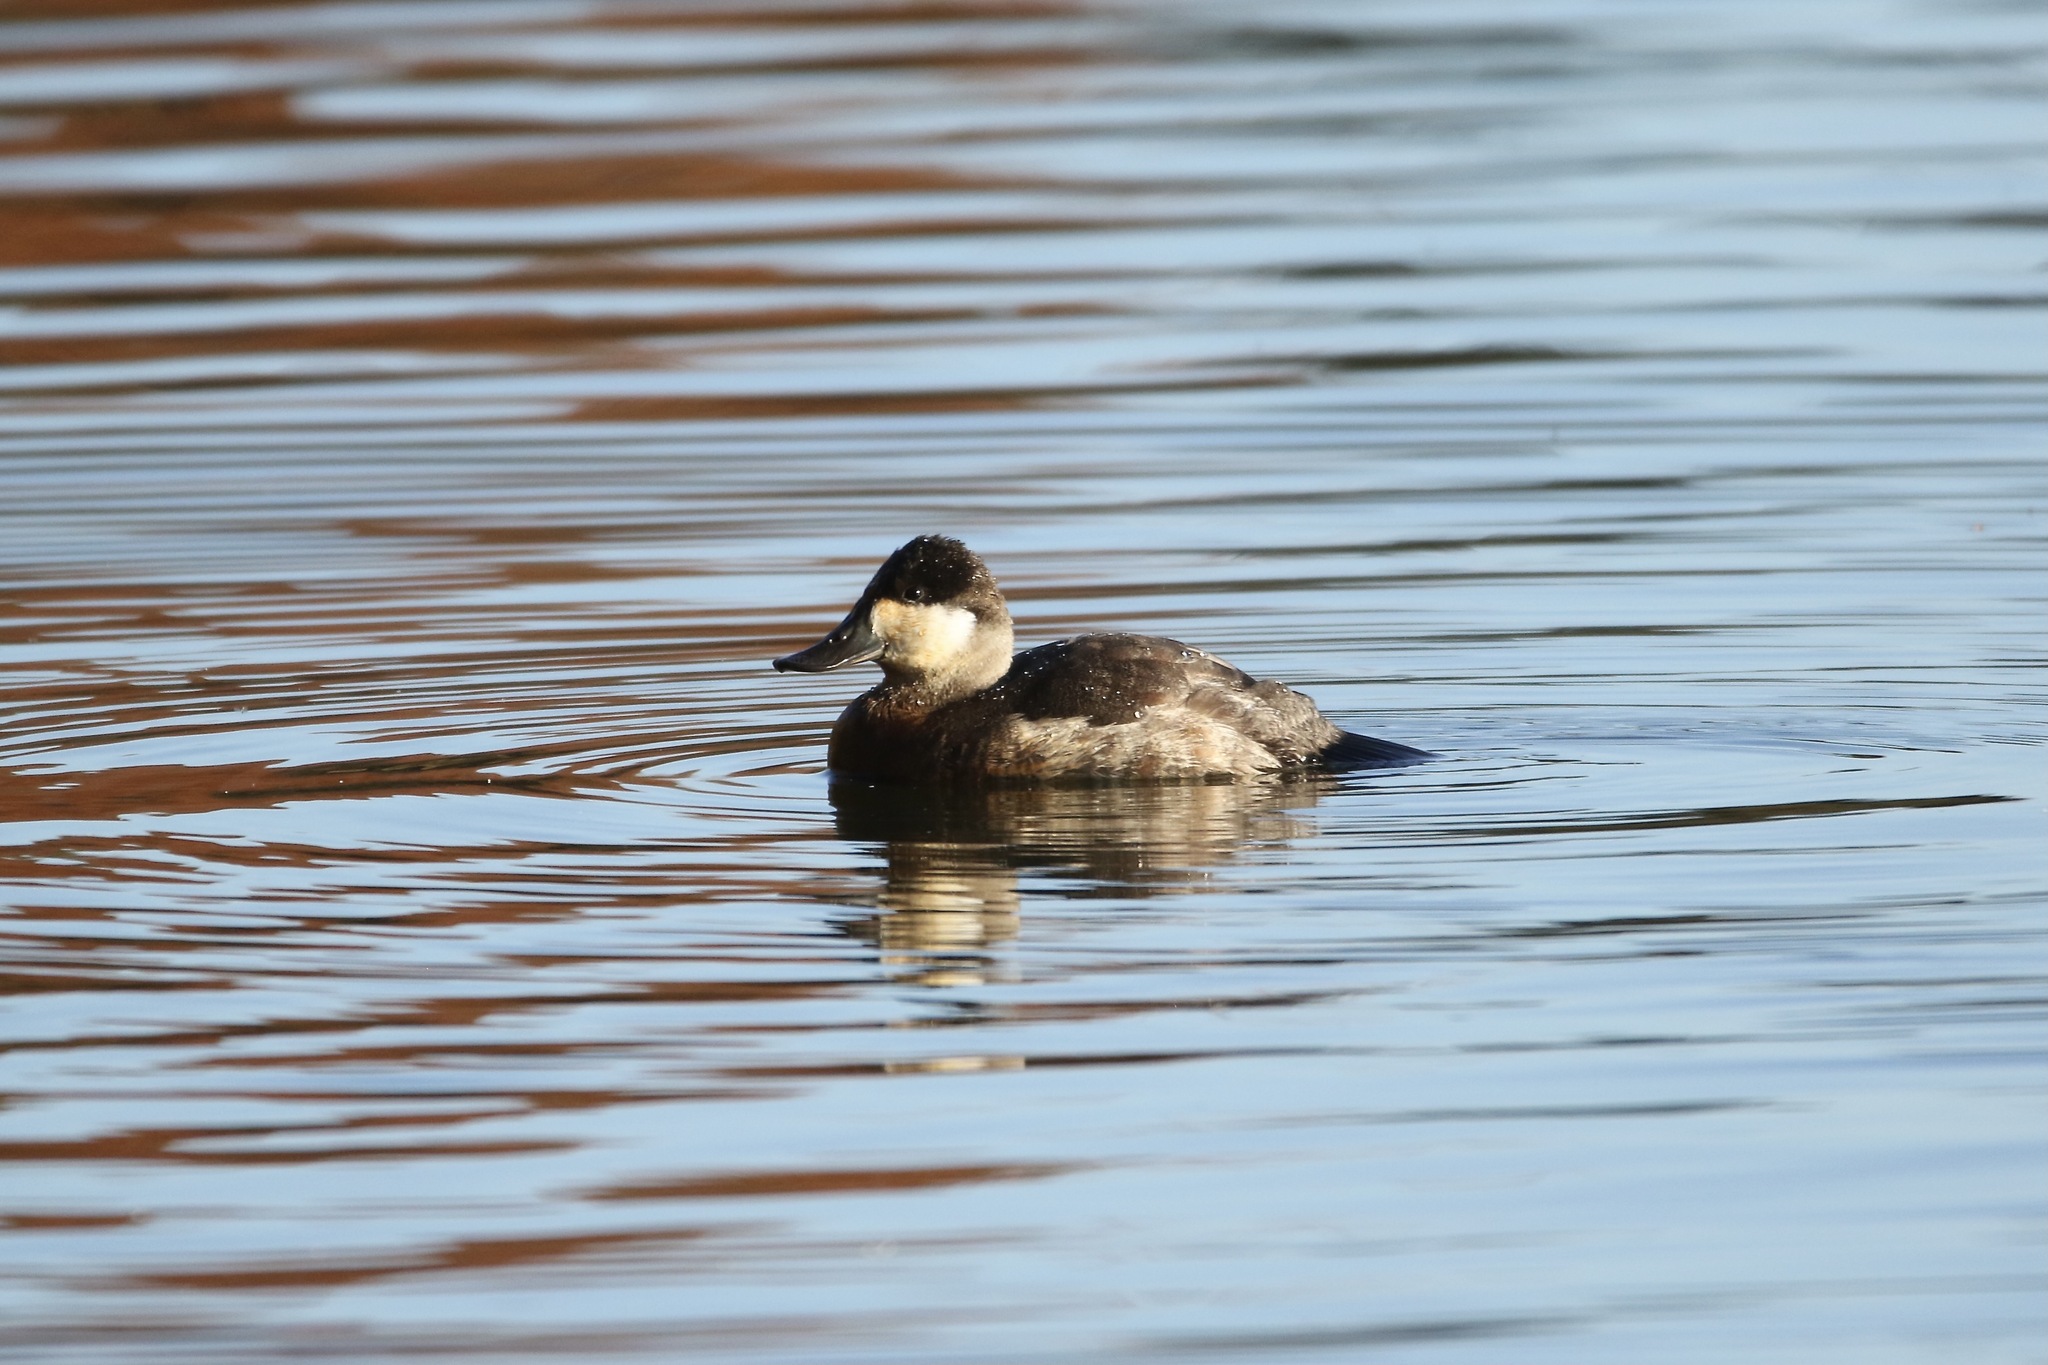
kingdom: Animalia
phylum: Chordata
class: Aves
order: Anseriformes
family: Anatidae
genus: Oxyura
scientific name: Oxyura jamaicensis
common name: Ruddy duck
